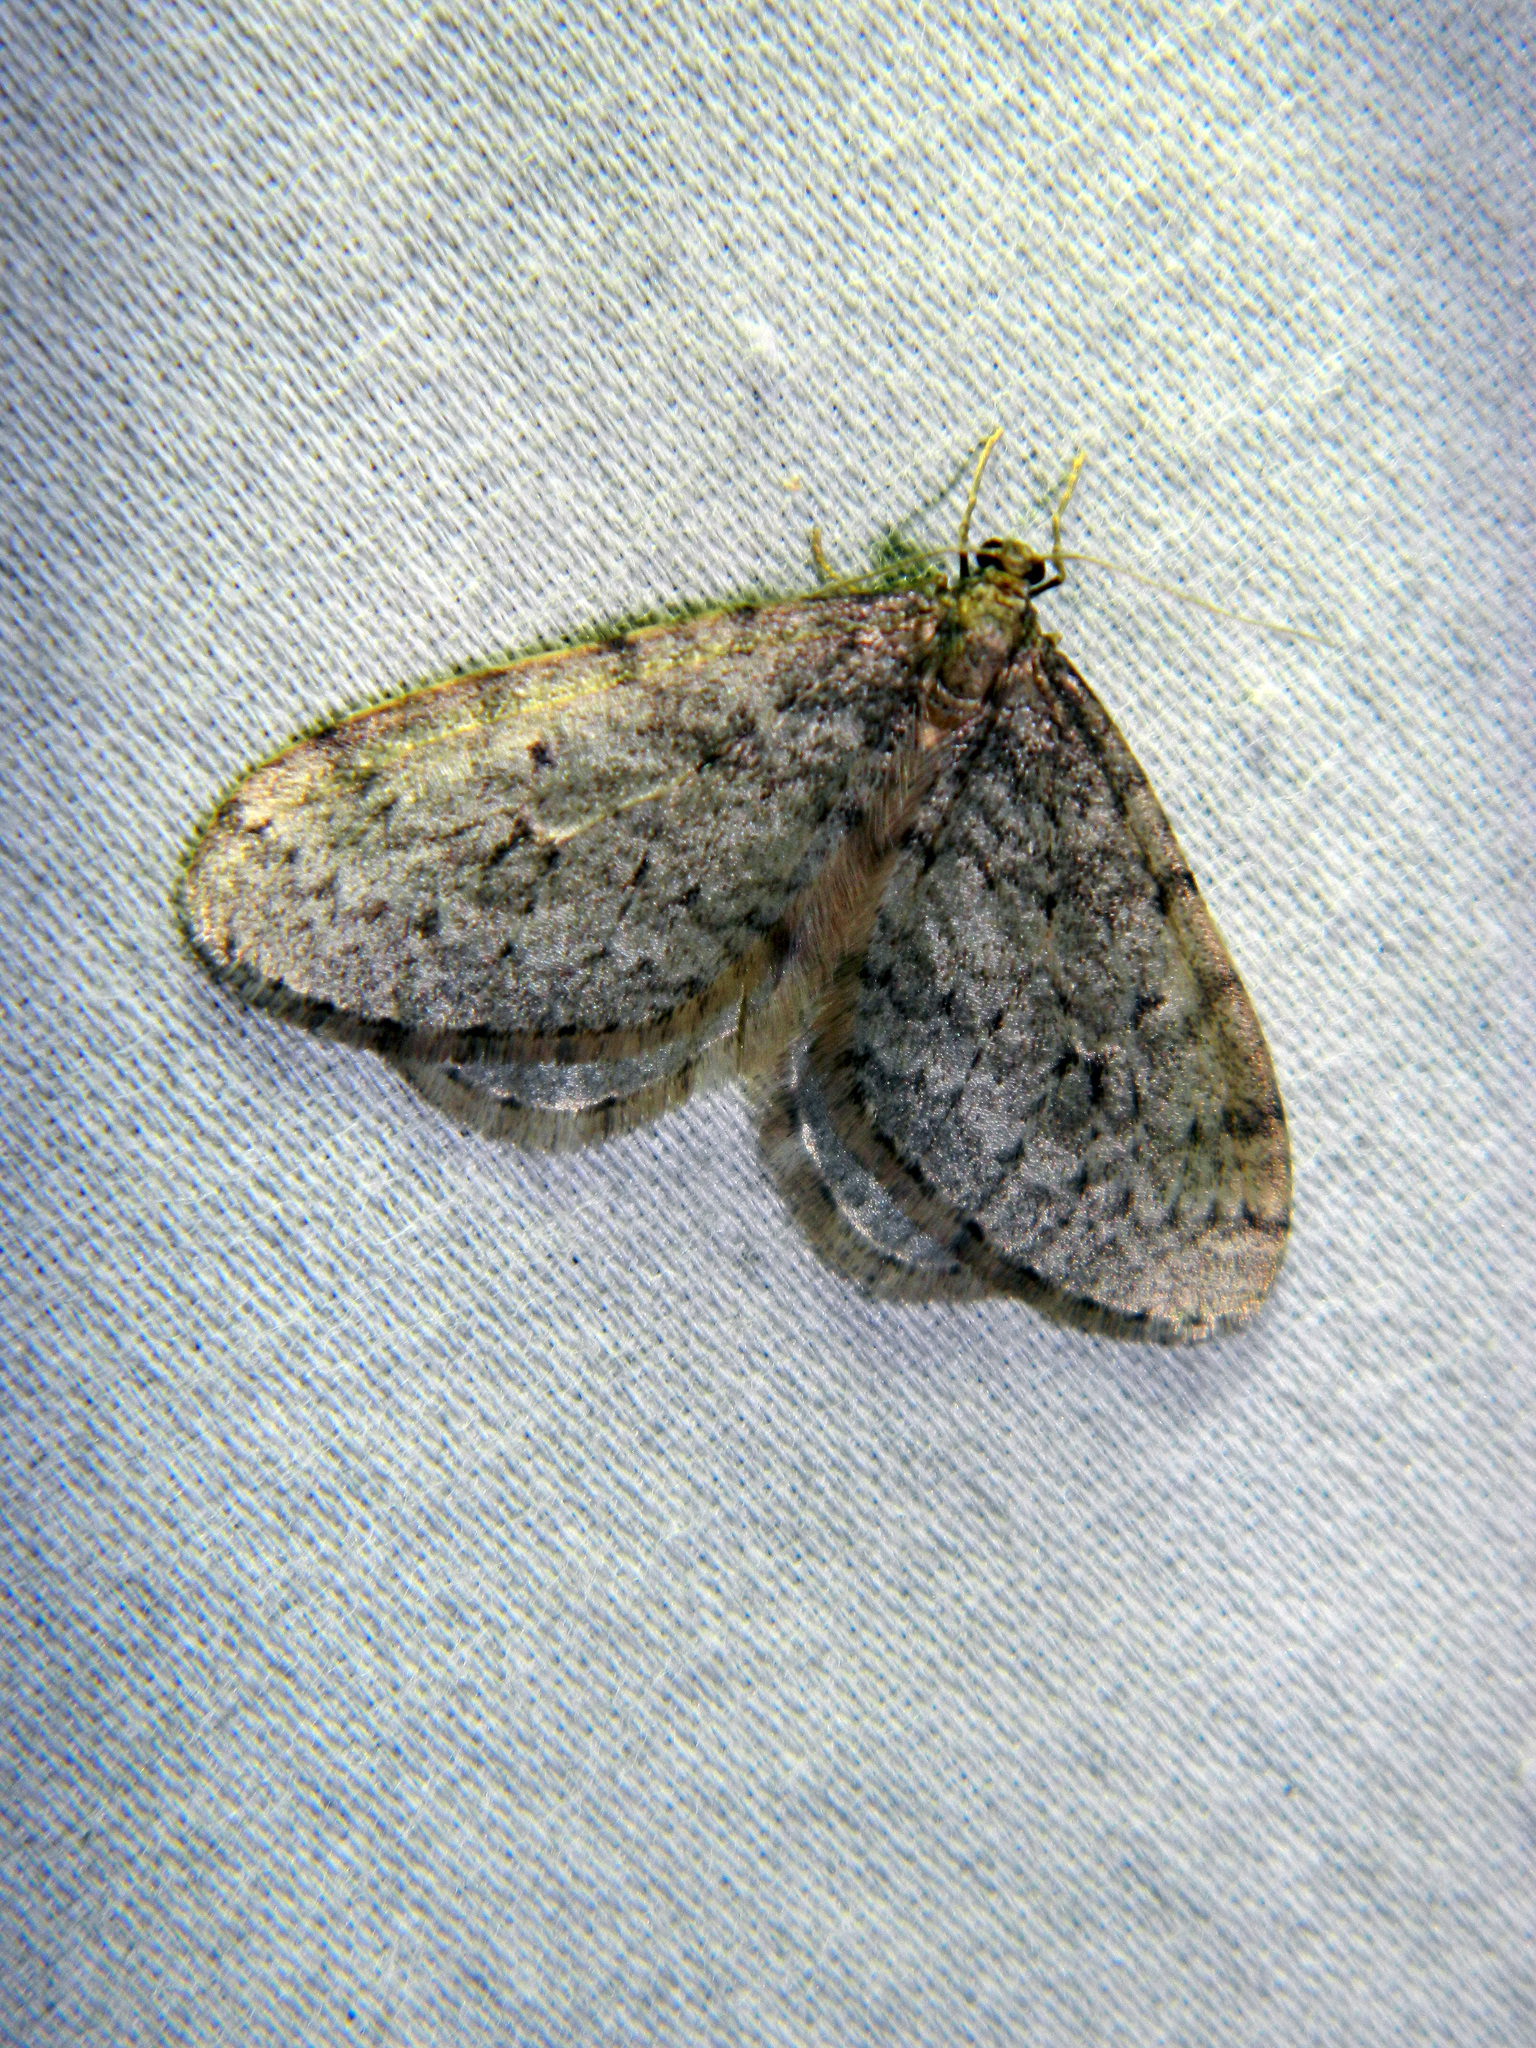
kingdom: Animalia
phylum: Arthropoda
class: Insecta
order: Lepidoptera
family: Geometridae
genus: Operophtera
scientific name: Operophtera bruceata
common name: Bruce spanworm
